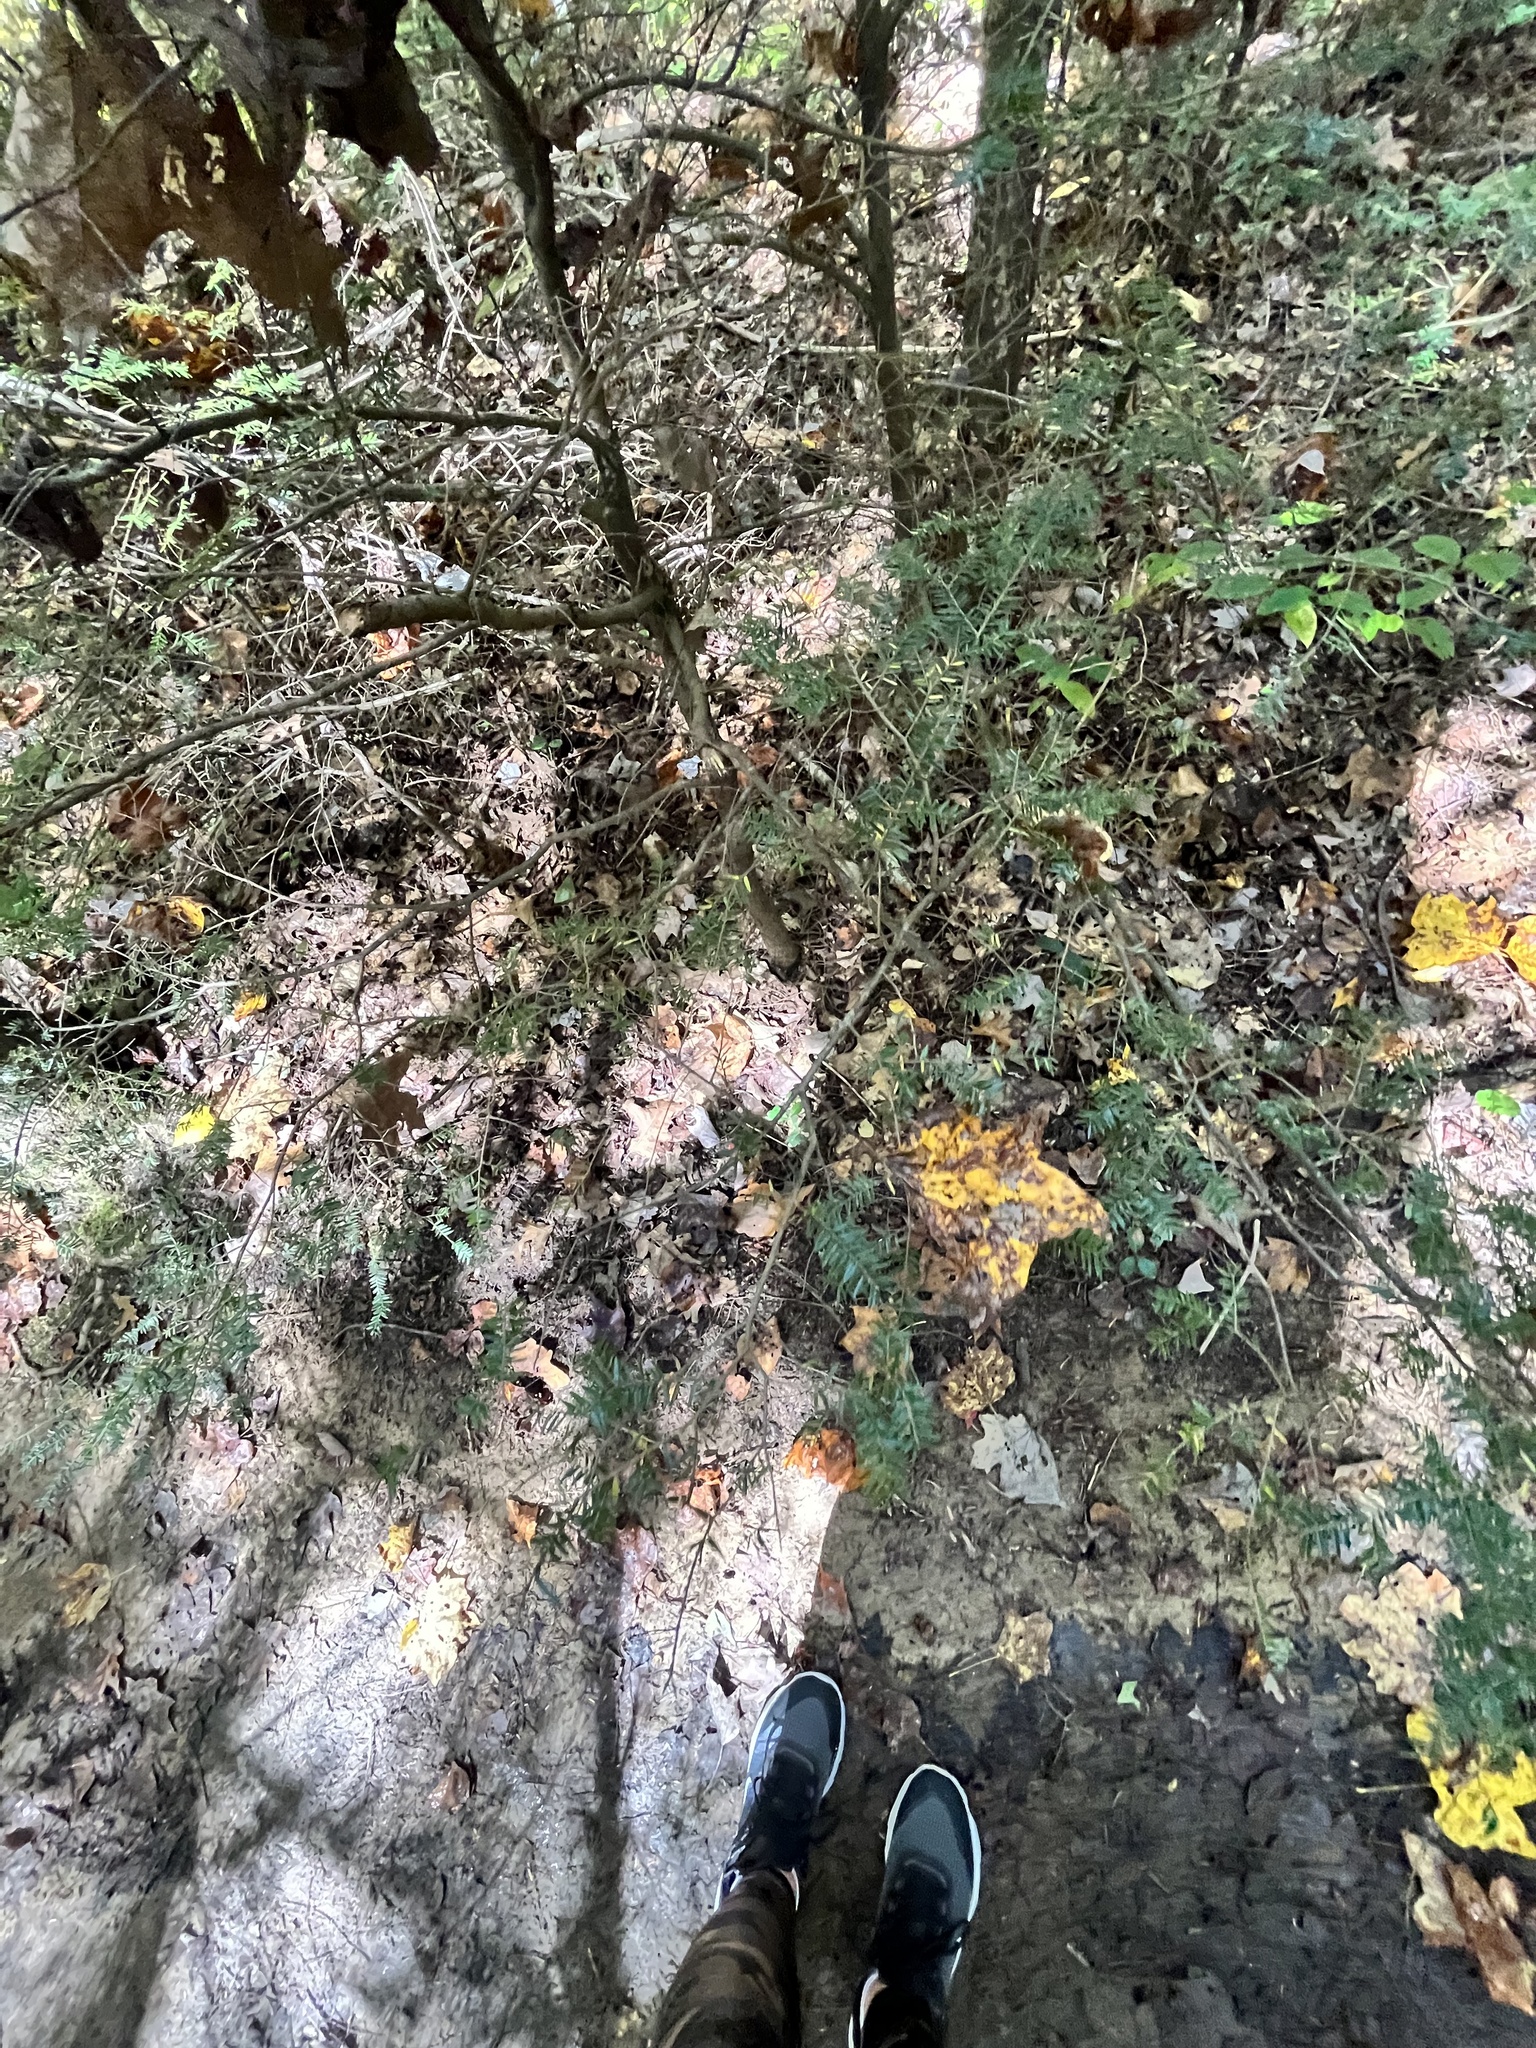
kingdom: Plantae
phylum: Tracheophyta
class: Pinopsida
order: Pinales
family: Pinaceae
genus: Tsuga
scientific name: Tsuga canadensis
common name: Eastern hemlock
